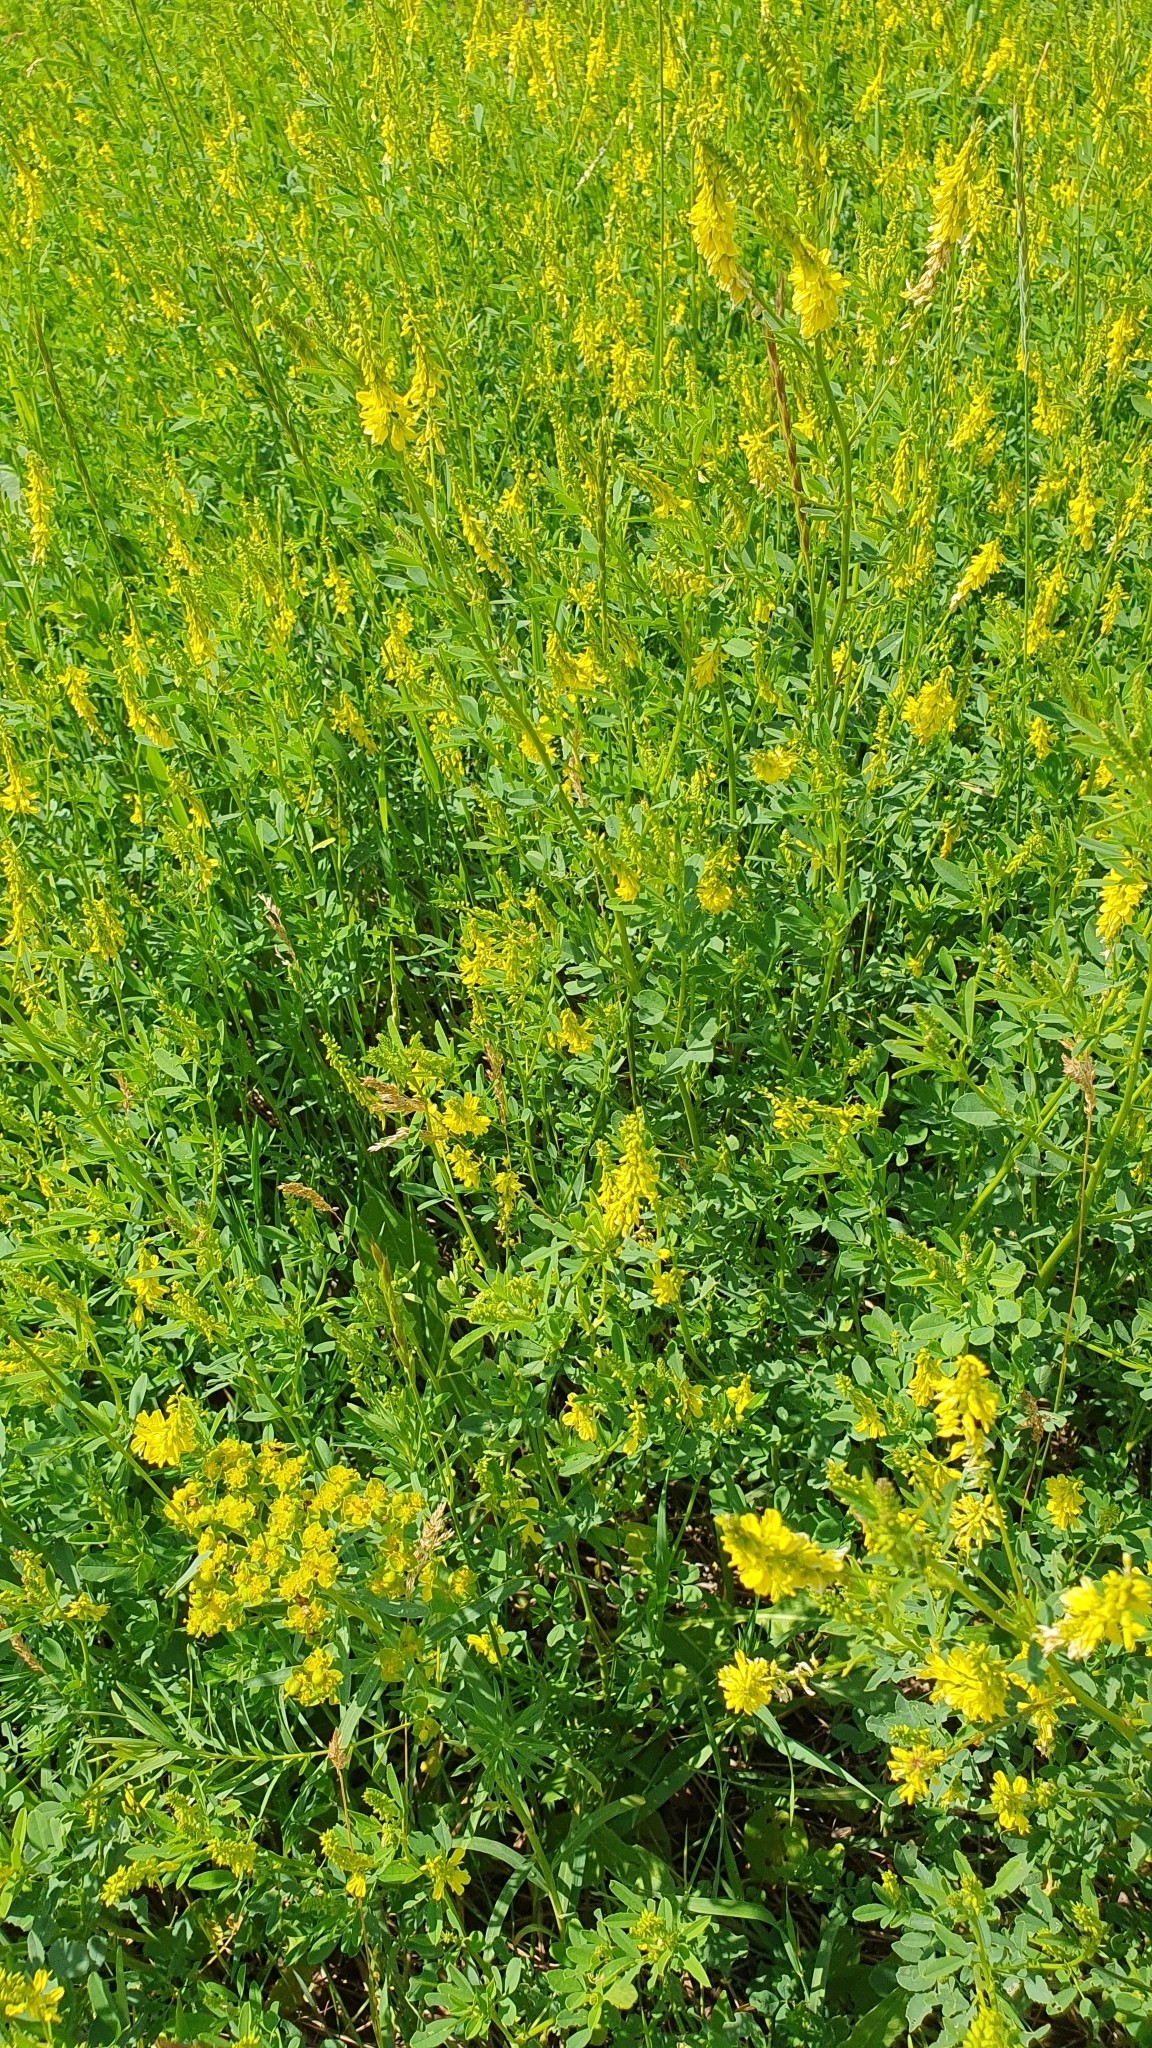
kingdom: Plantae
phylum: Tracheophyta
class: Magnoliopsida
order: Fabales
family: Fabaceae
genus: Melilotus
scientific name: Melilotus officinalis
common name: Sweetclover
